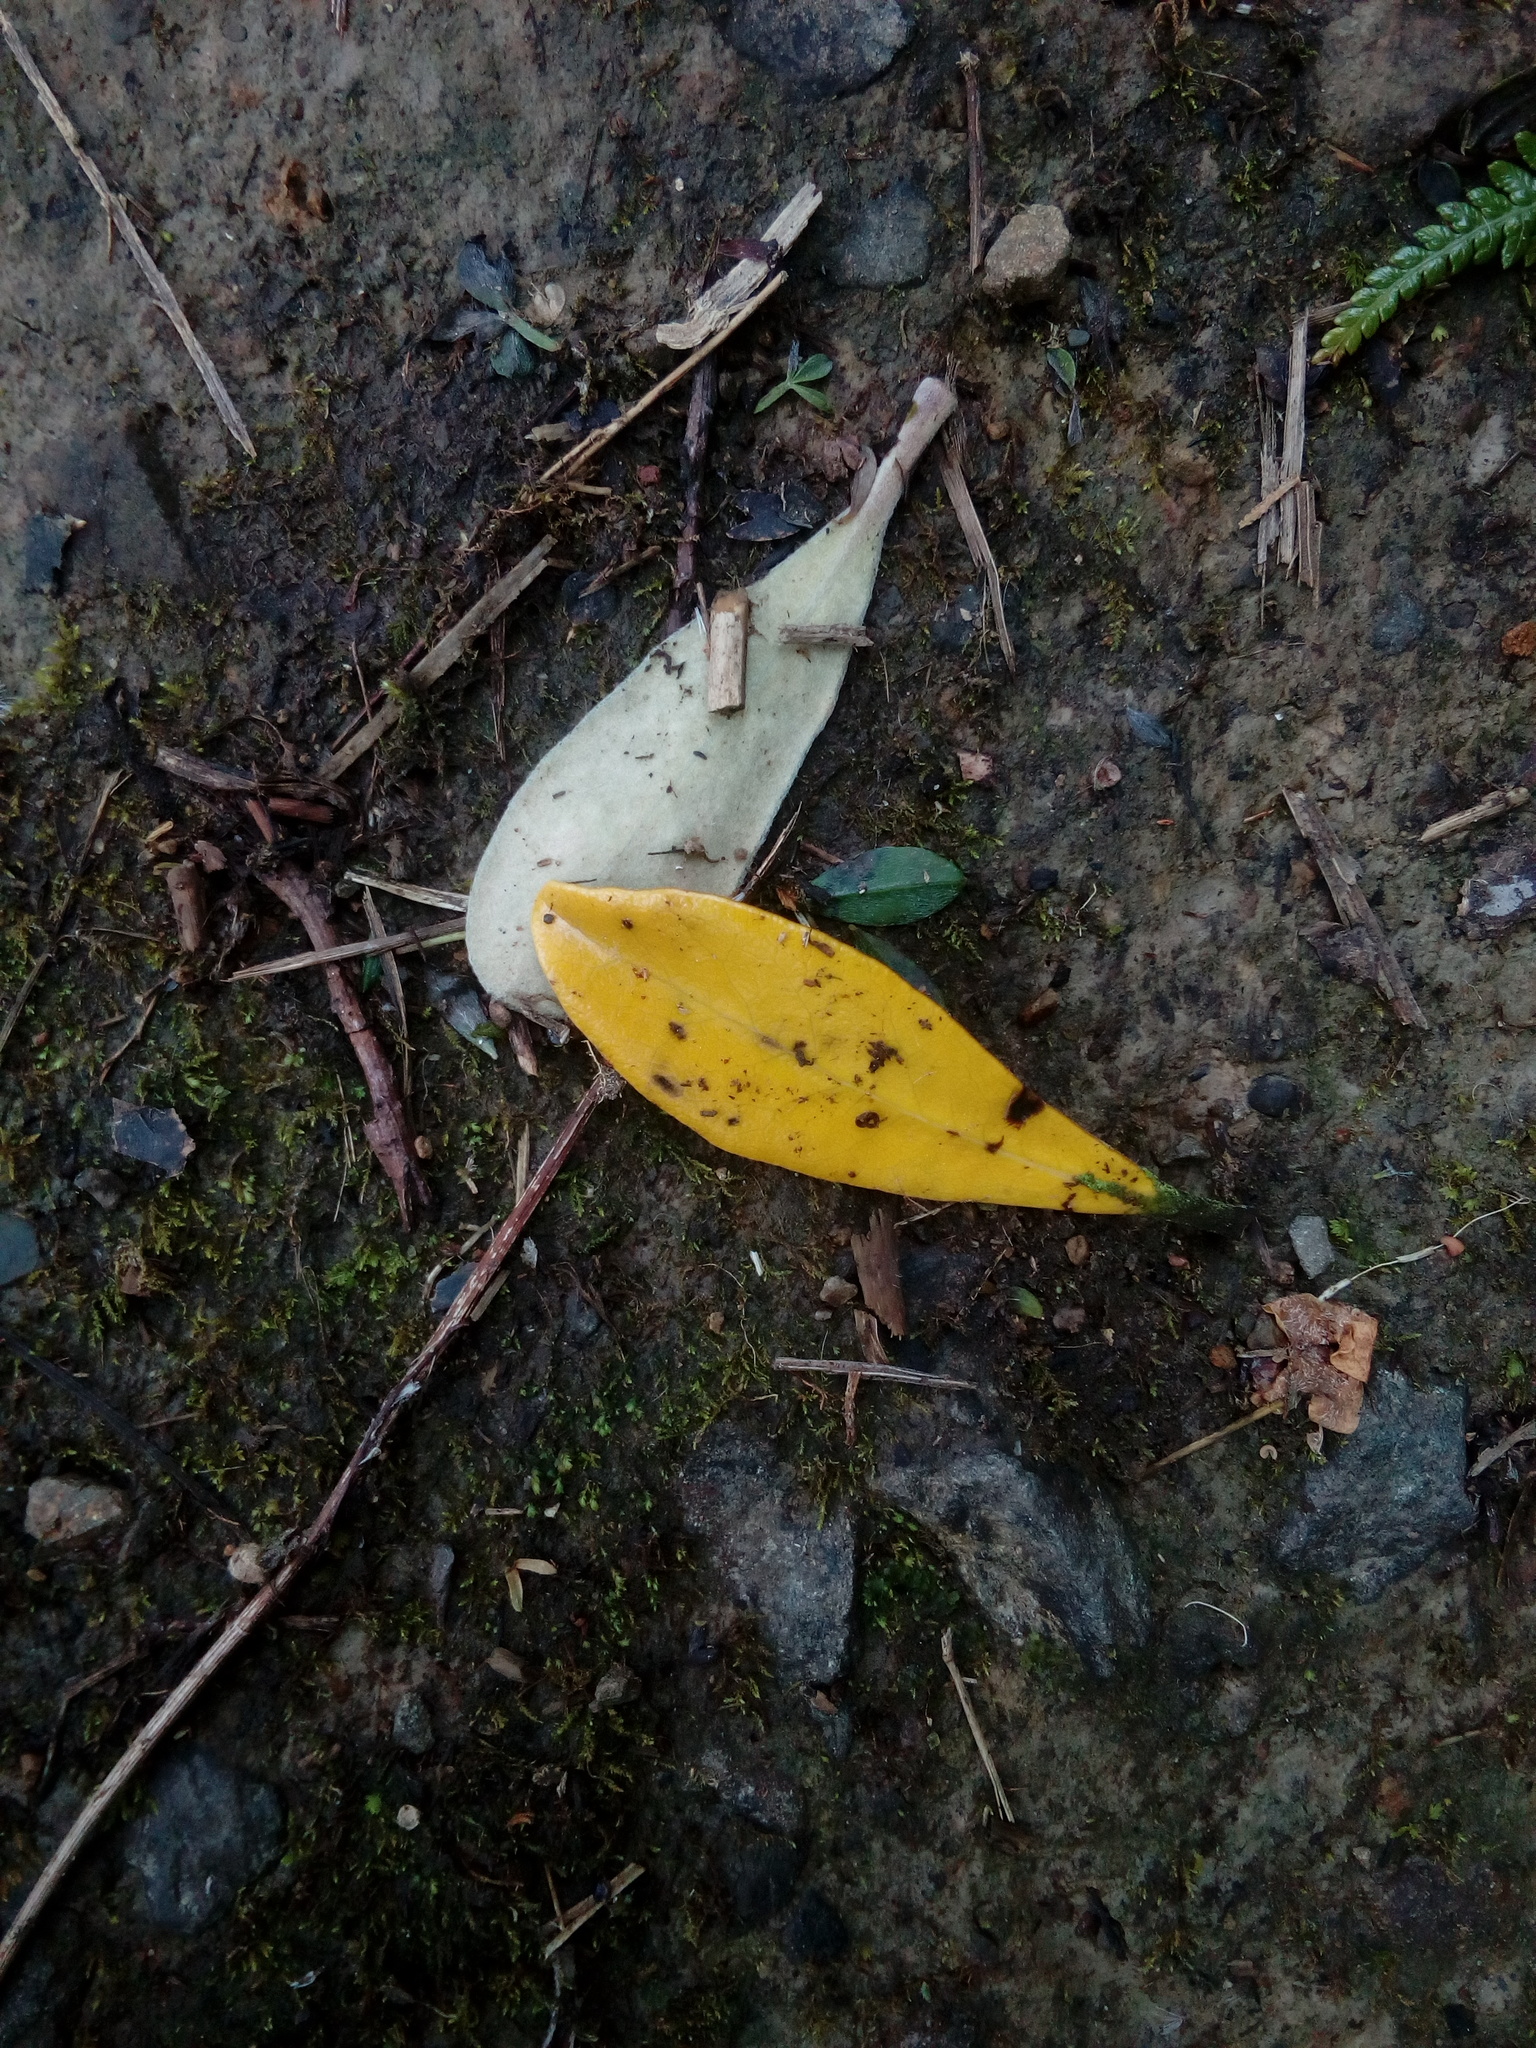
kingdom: Plantae
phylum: Tracheophyta
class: Magnoliopsida
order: Apiales
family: Pittosporaceae
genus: Pittosporum
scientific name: Pittosporum crassifolium
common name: Karo
